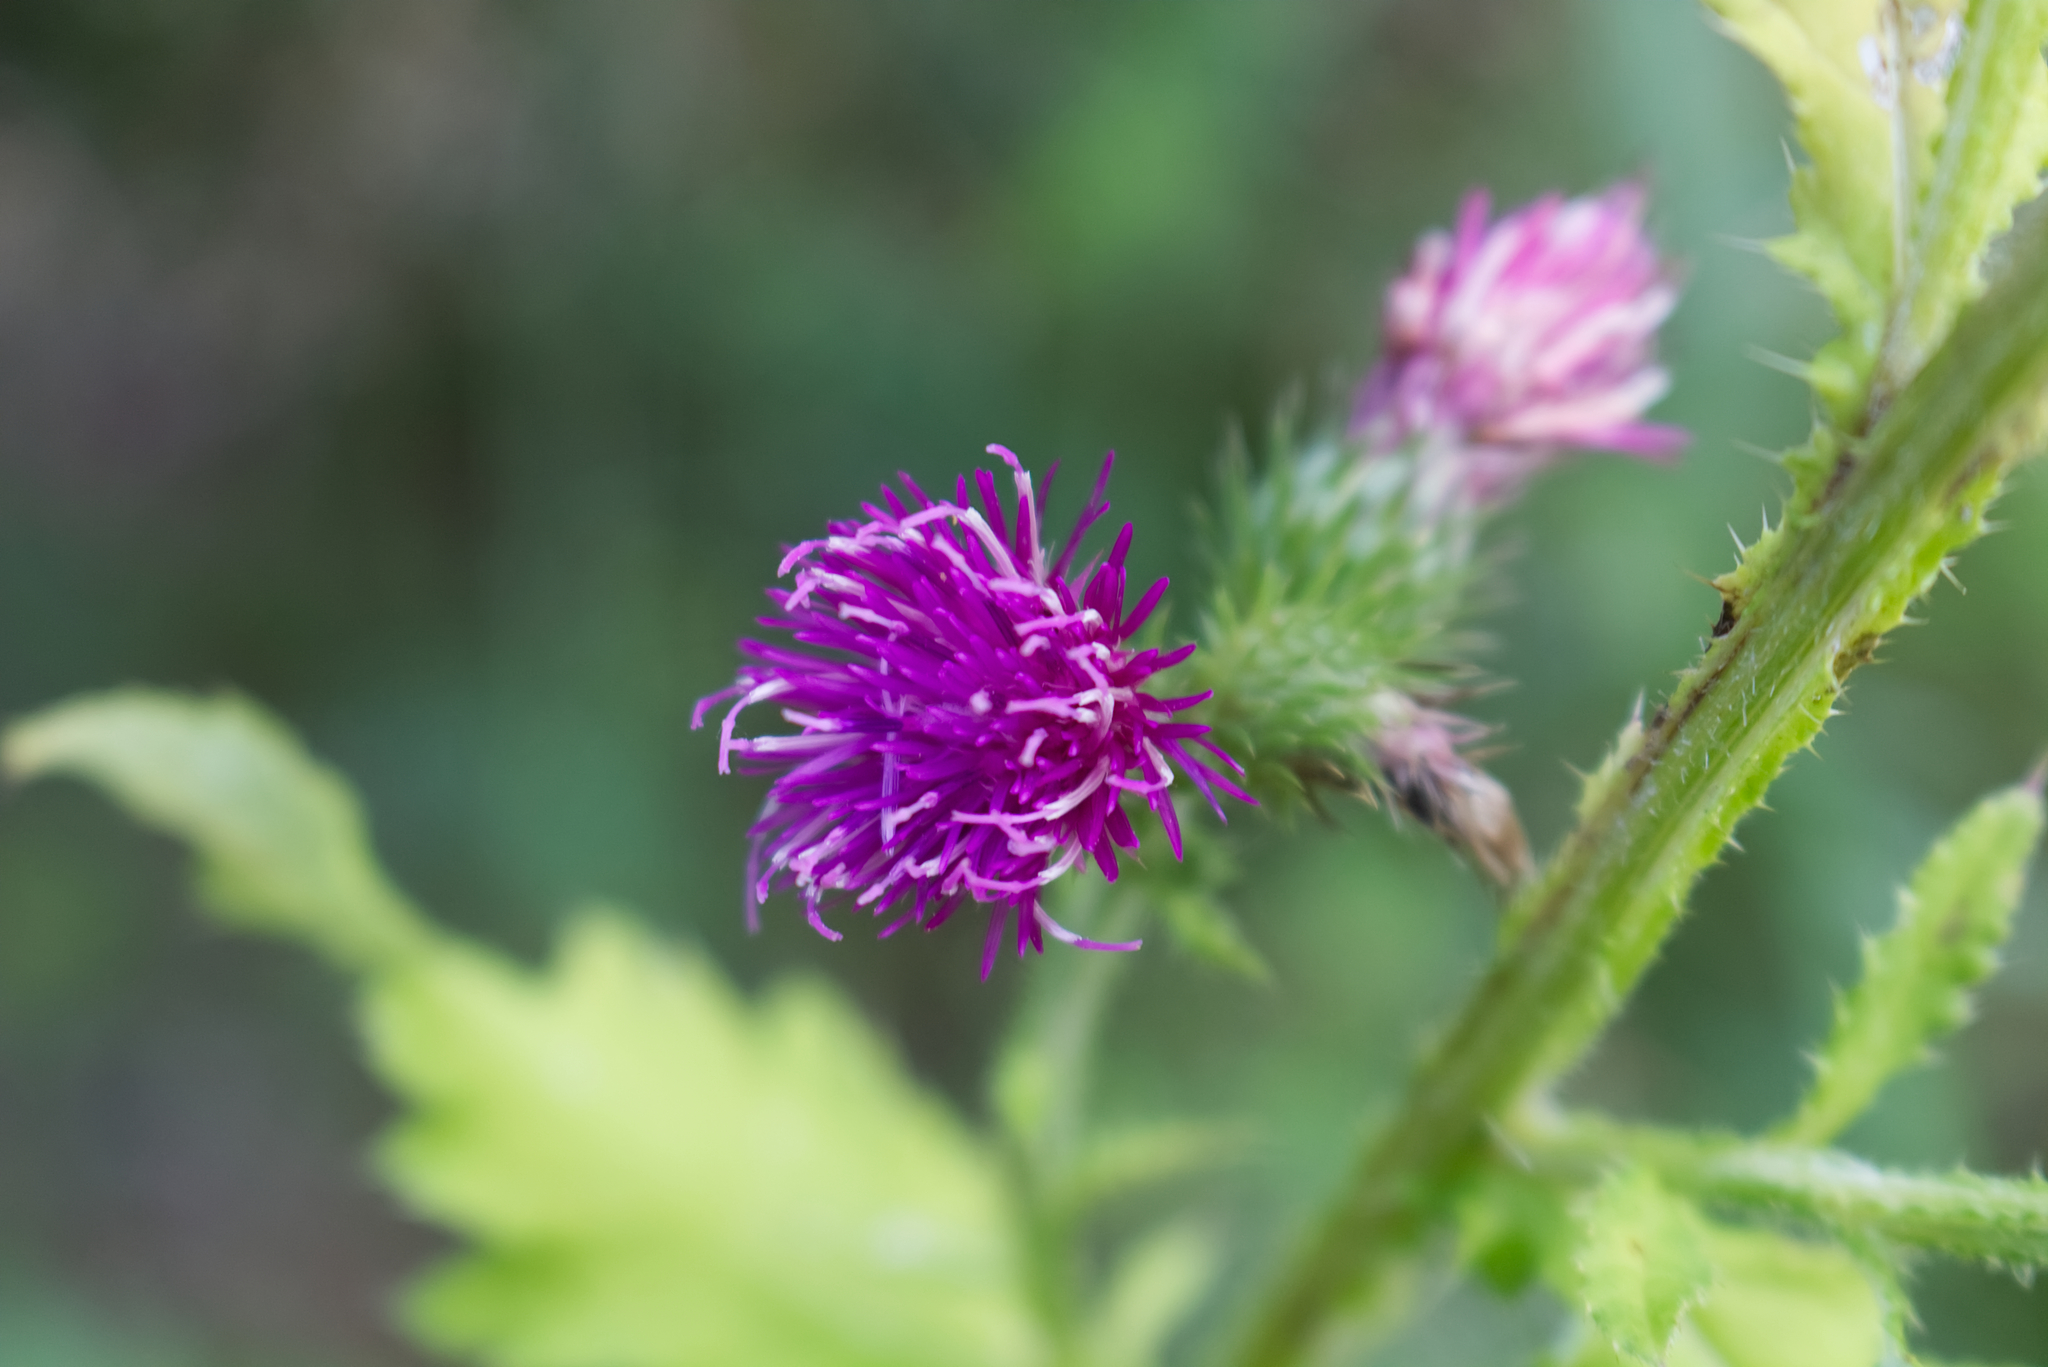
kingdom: Plantae
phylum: Tracheophyta
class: Magnoliopsida
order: Asterales
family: Asteraceae
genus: Carduus
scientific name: Carduus crispus
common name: Welted thistle
